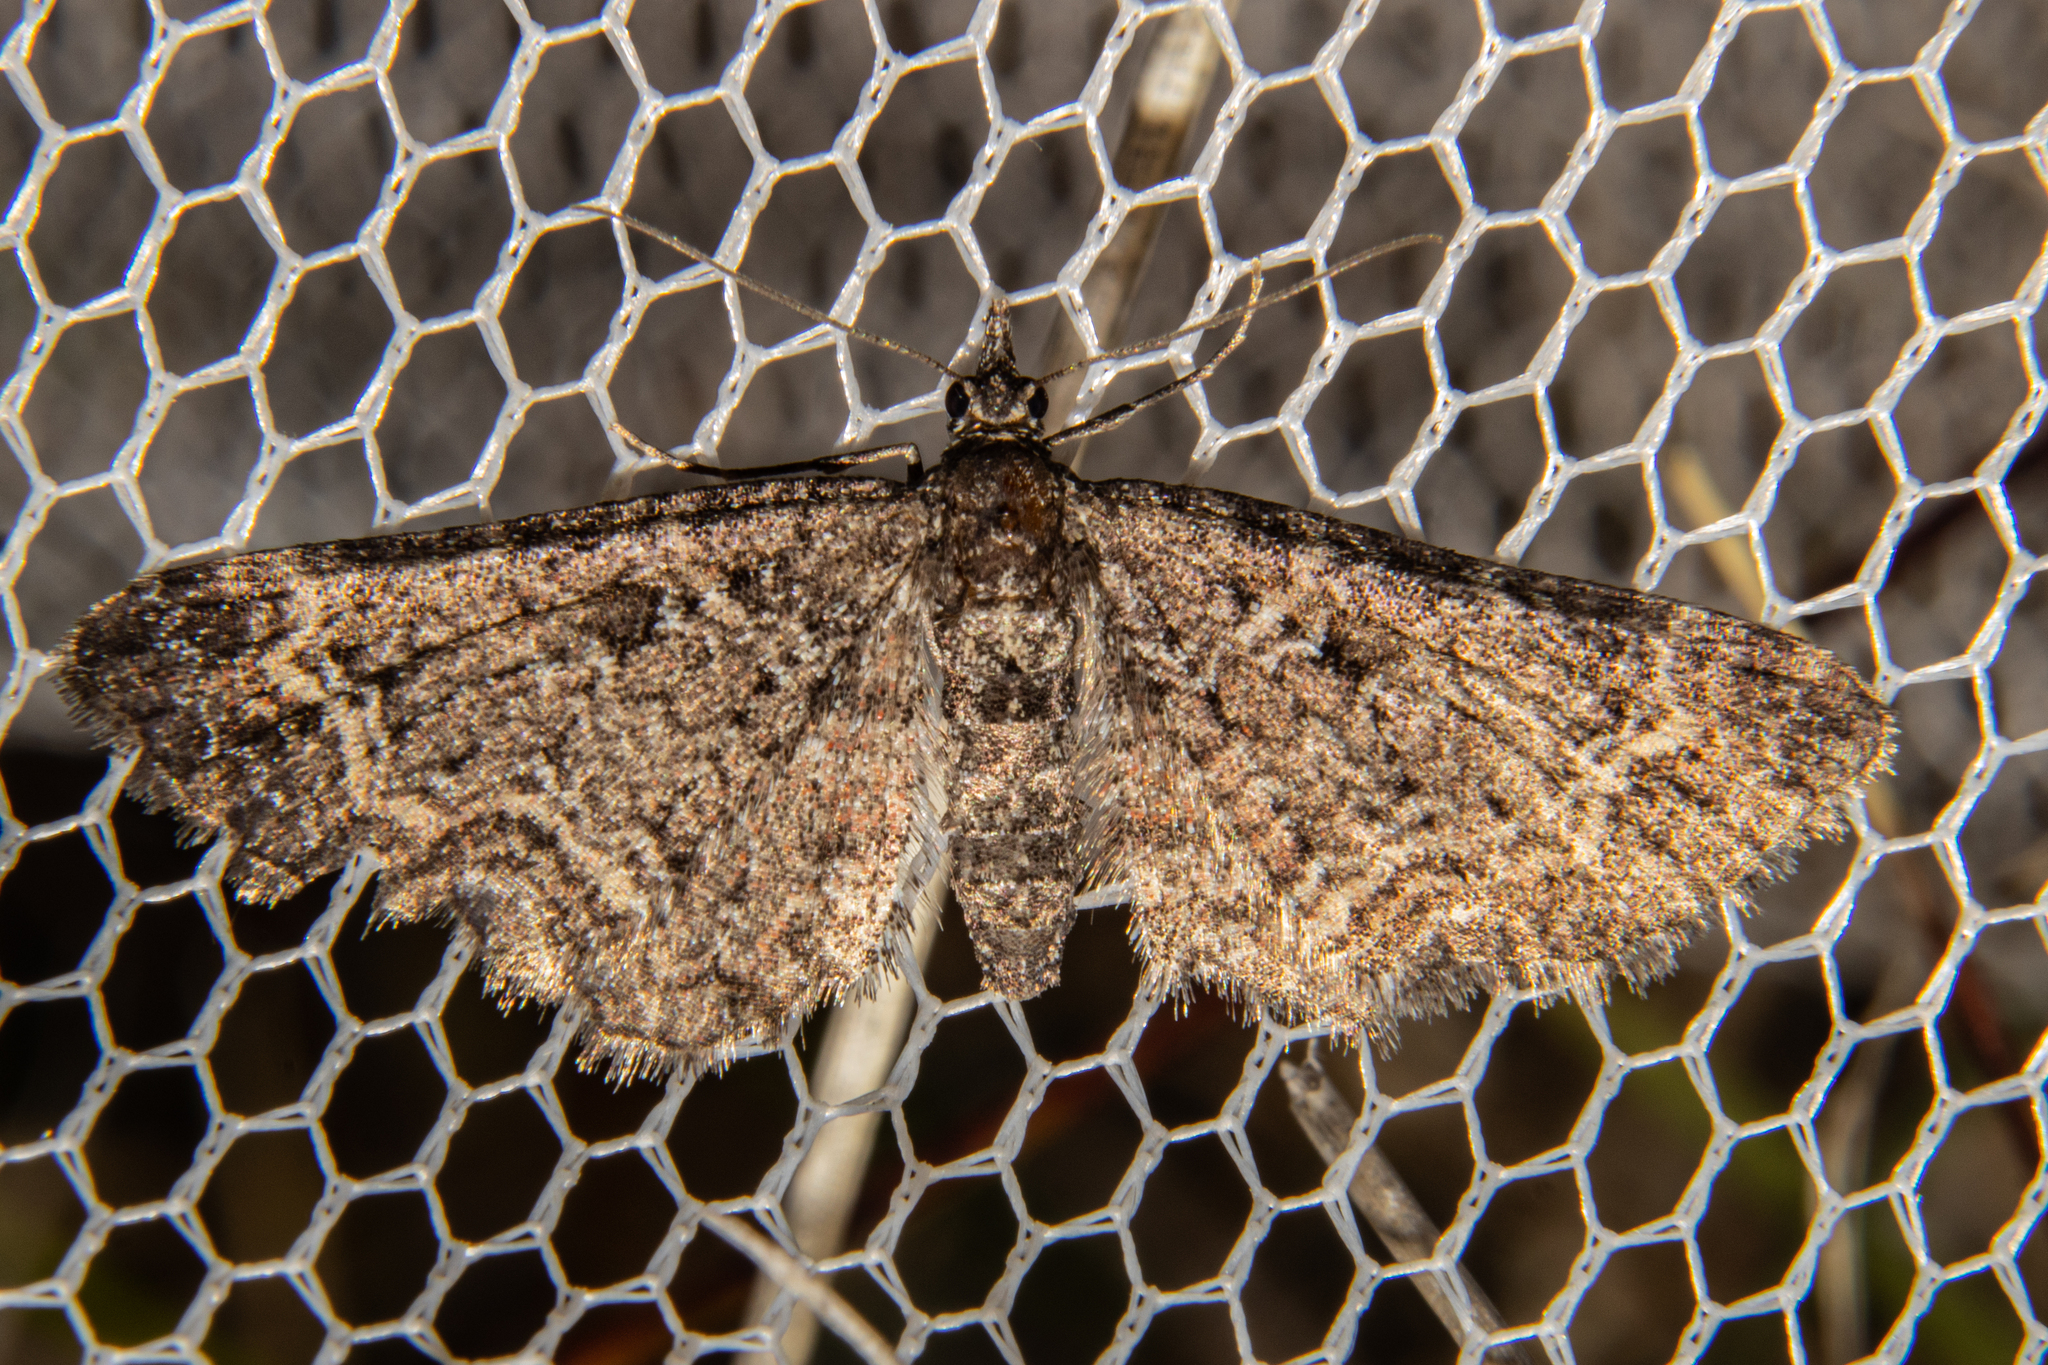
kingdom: Animalia
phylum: Arthropoda
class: Insecta
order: Lepidoptera
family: Geometridae
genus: Pasiphila
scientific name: Pasiphila rubella
